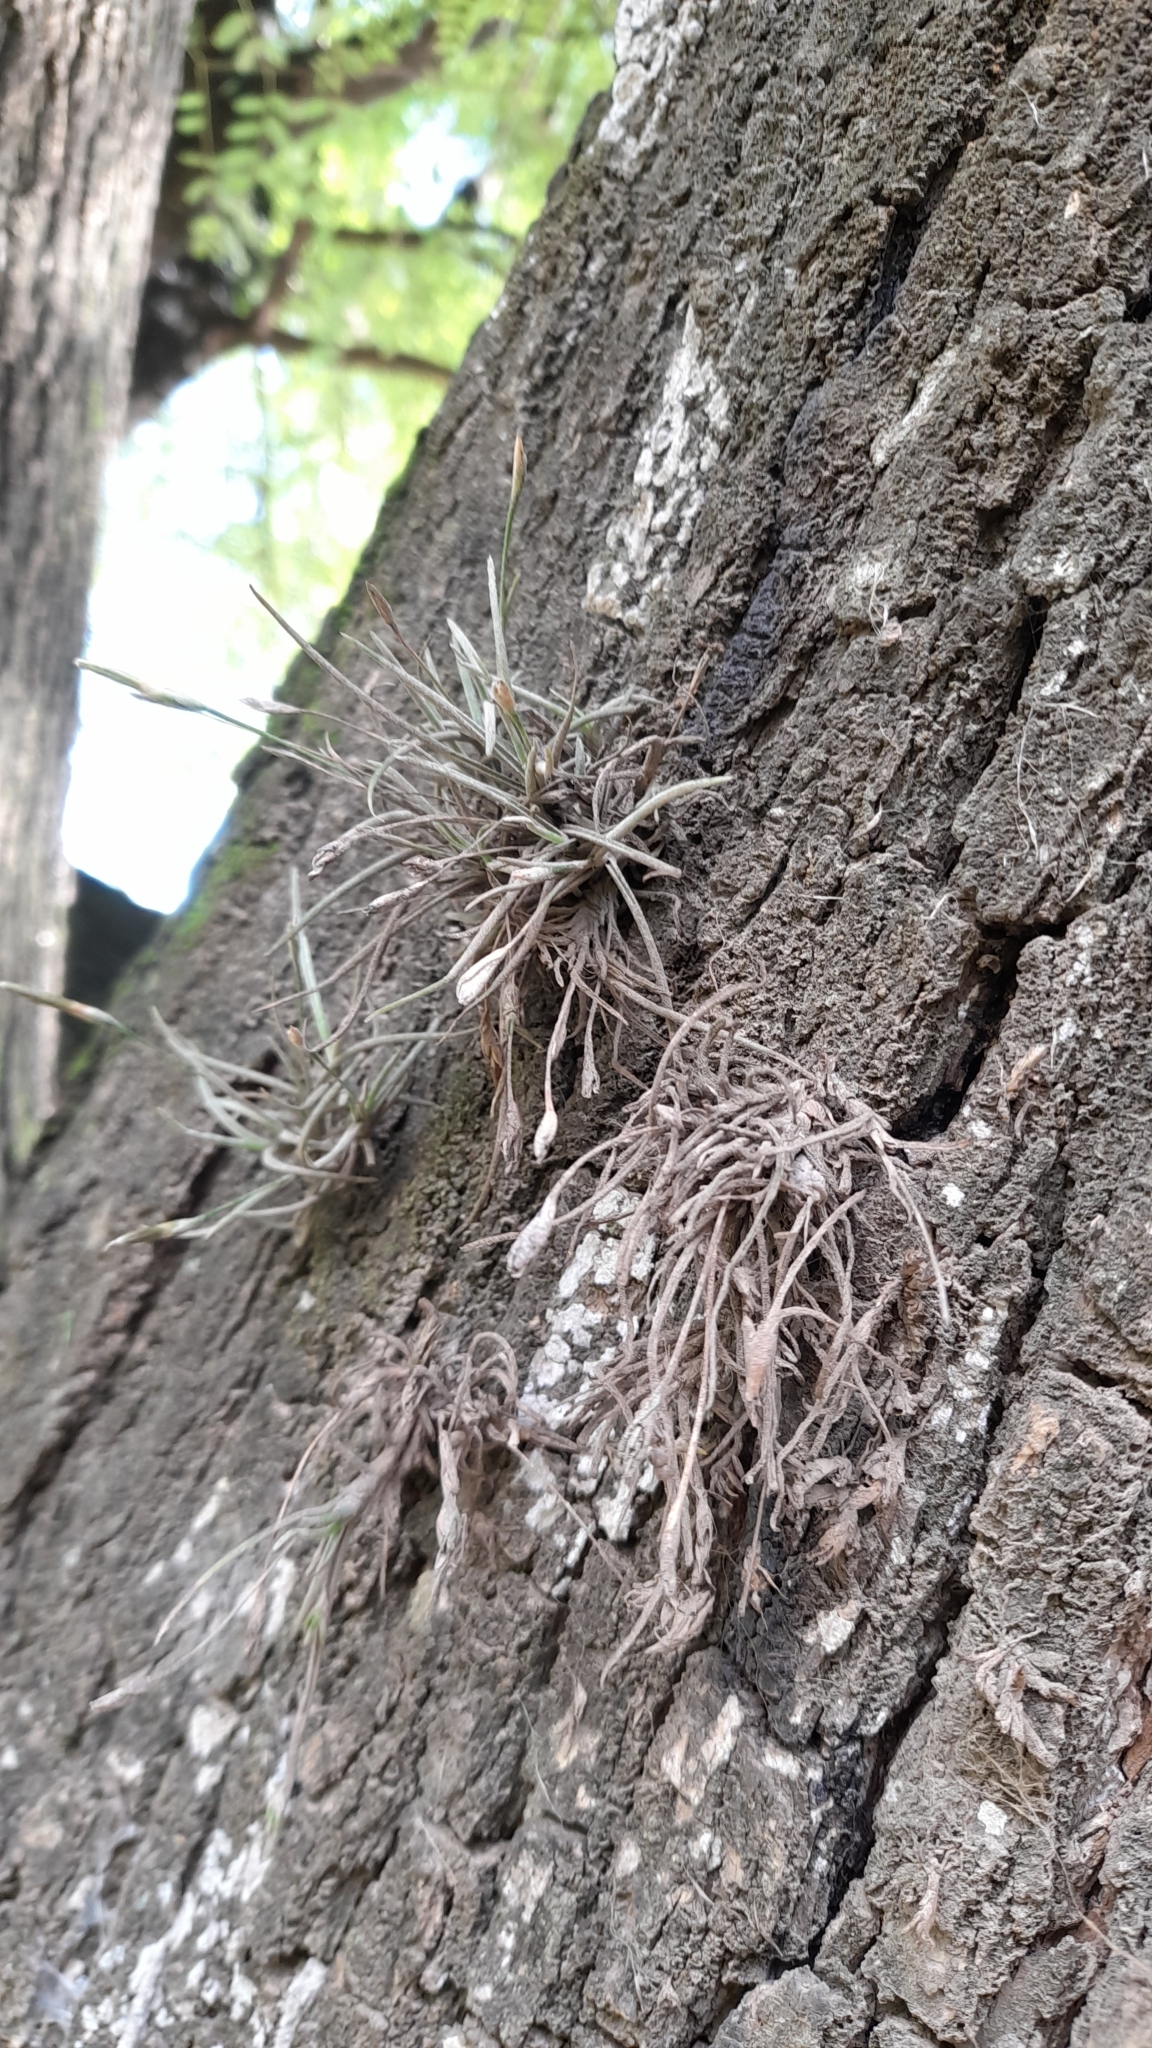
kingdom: Plantae
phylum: Tracheophyta
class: Liliopsida
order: Poales
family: Bromeliaceae
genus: Tillandsia
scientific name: Tillandsia recurvata
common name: Small ballmoss
